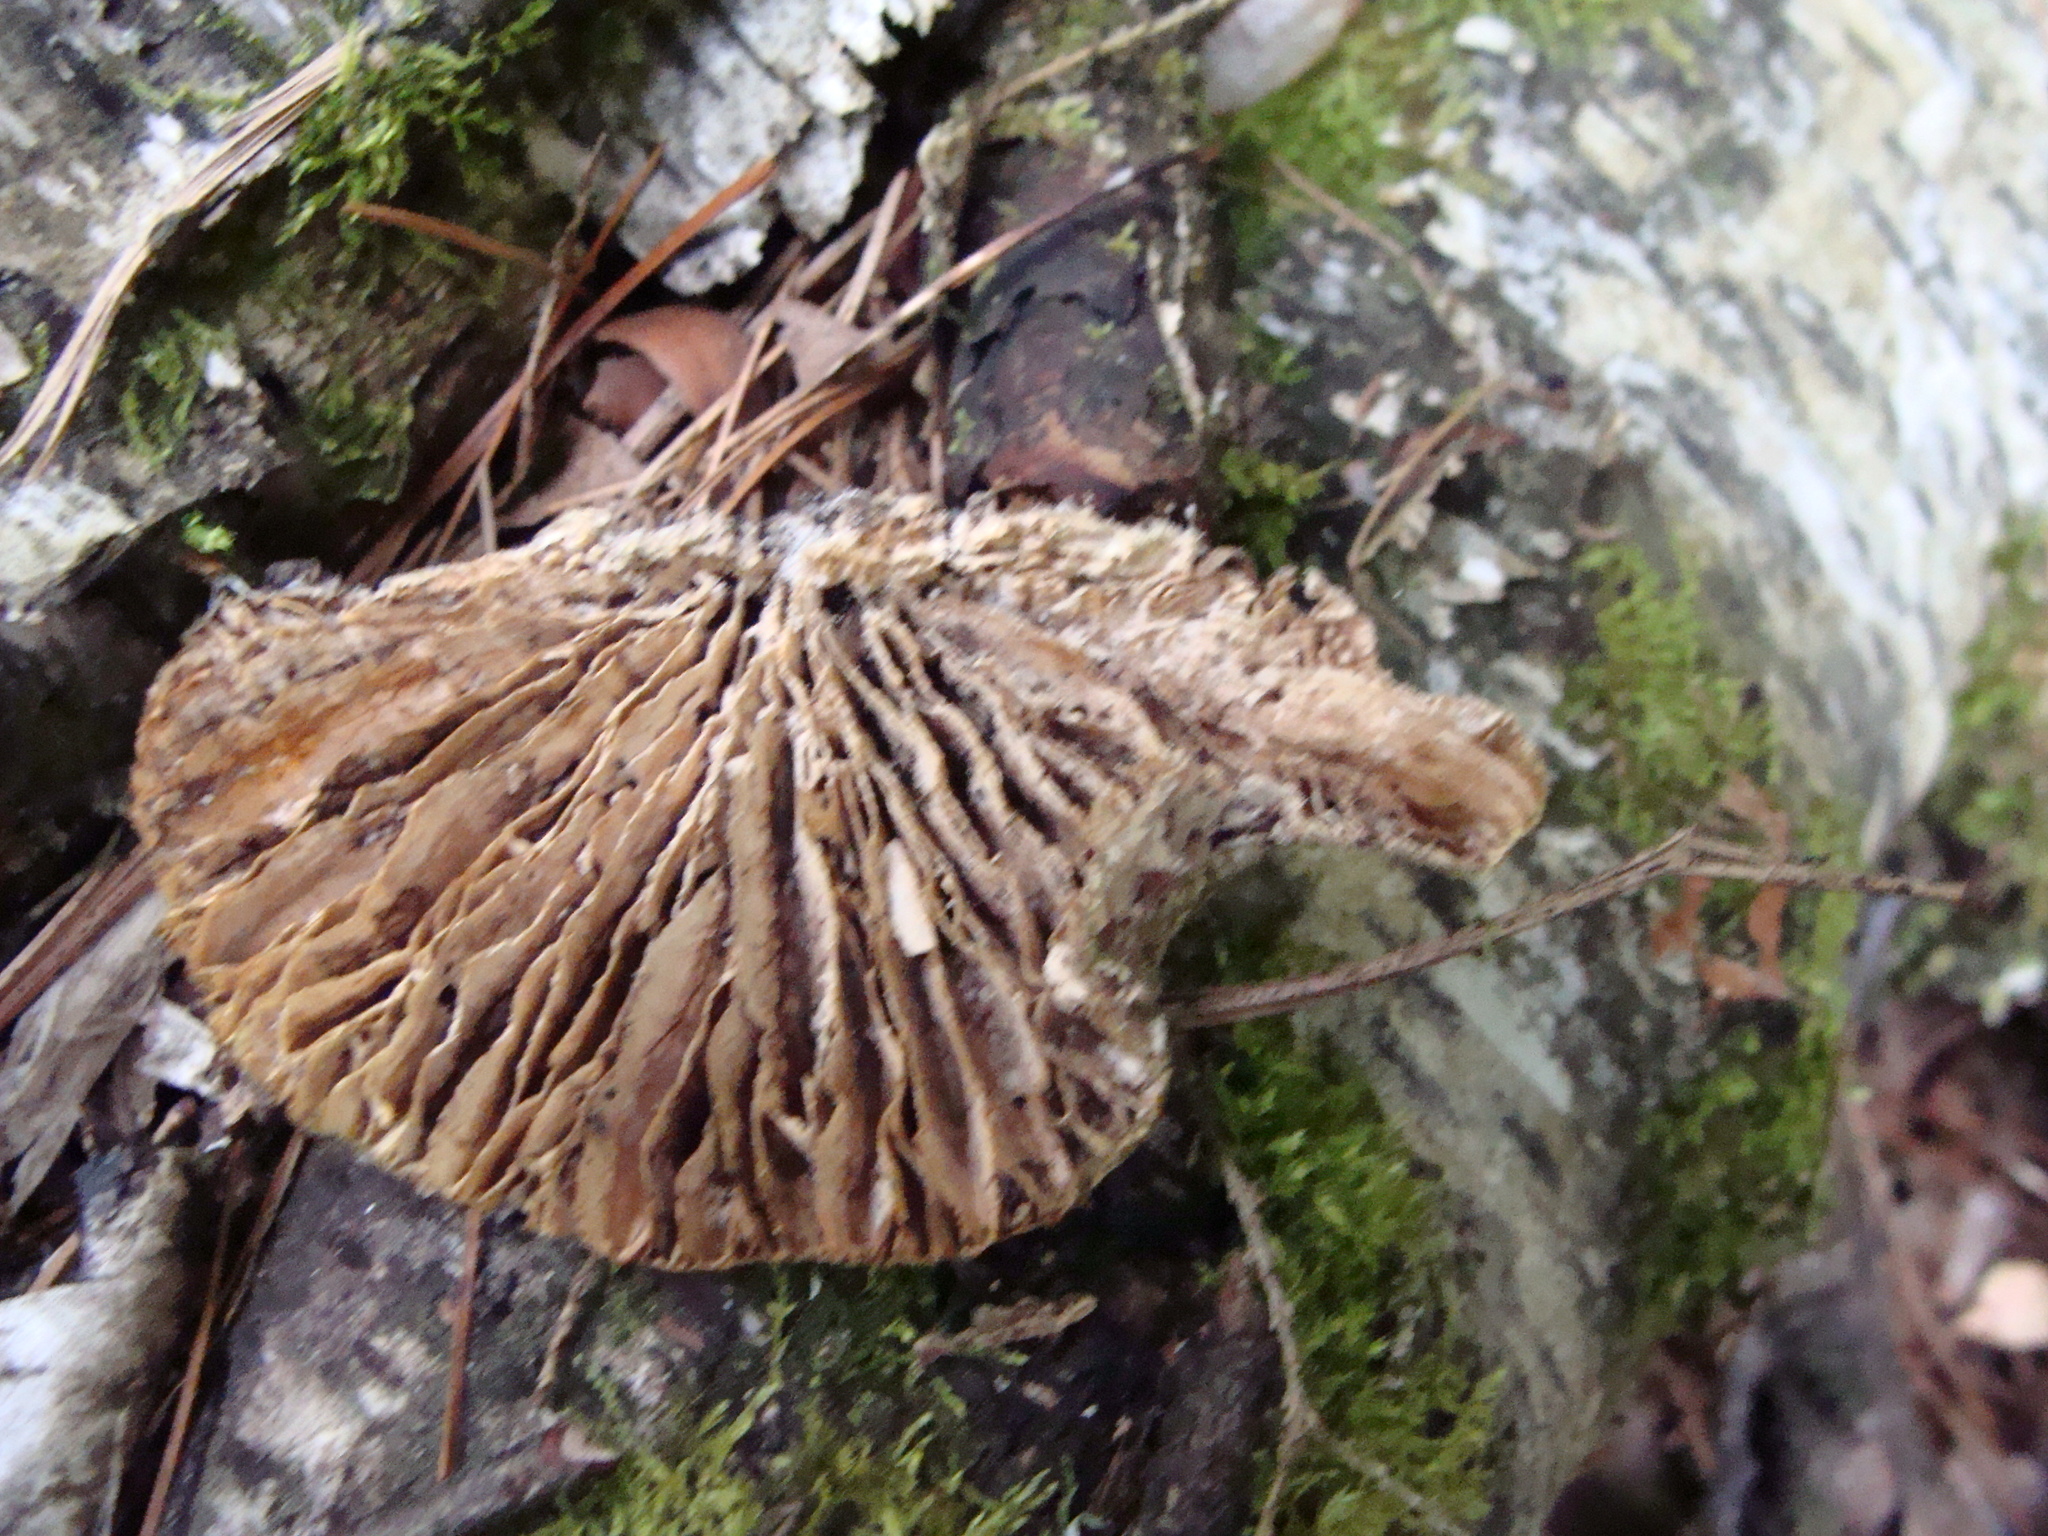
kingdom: Fungi
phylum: Basidiomycota
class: Agaricomycetes
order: Polyporales
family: Polyporaceae
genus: Lenzites
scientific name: Lenzites betulinus
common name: Birch mazegill
